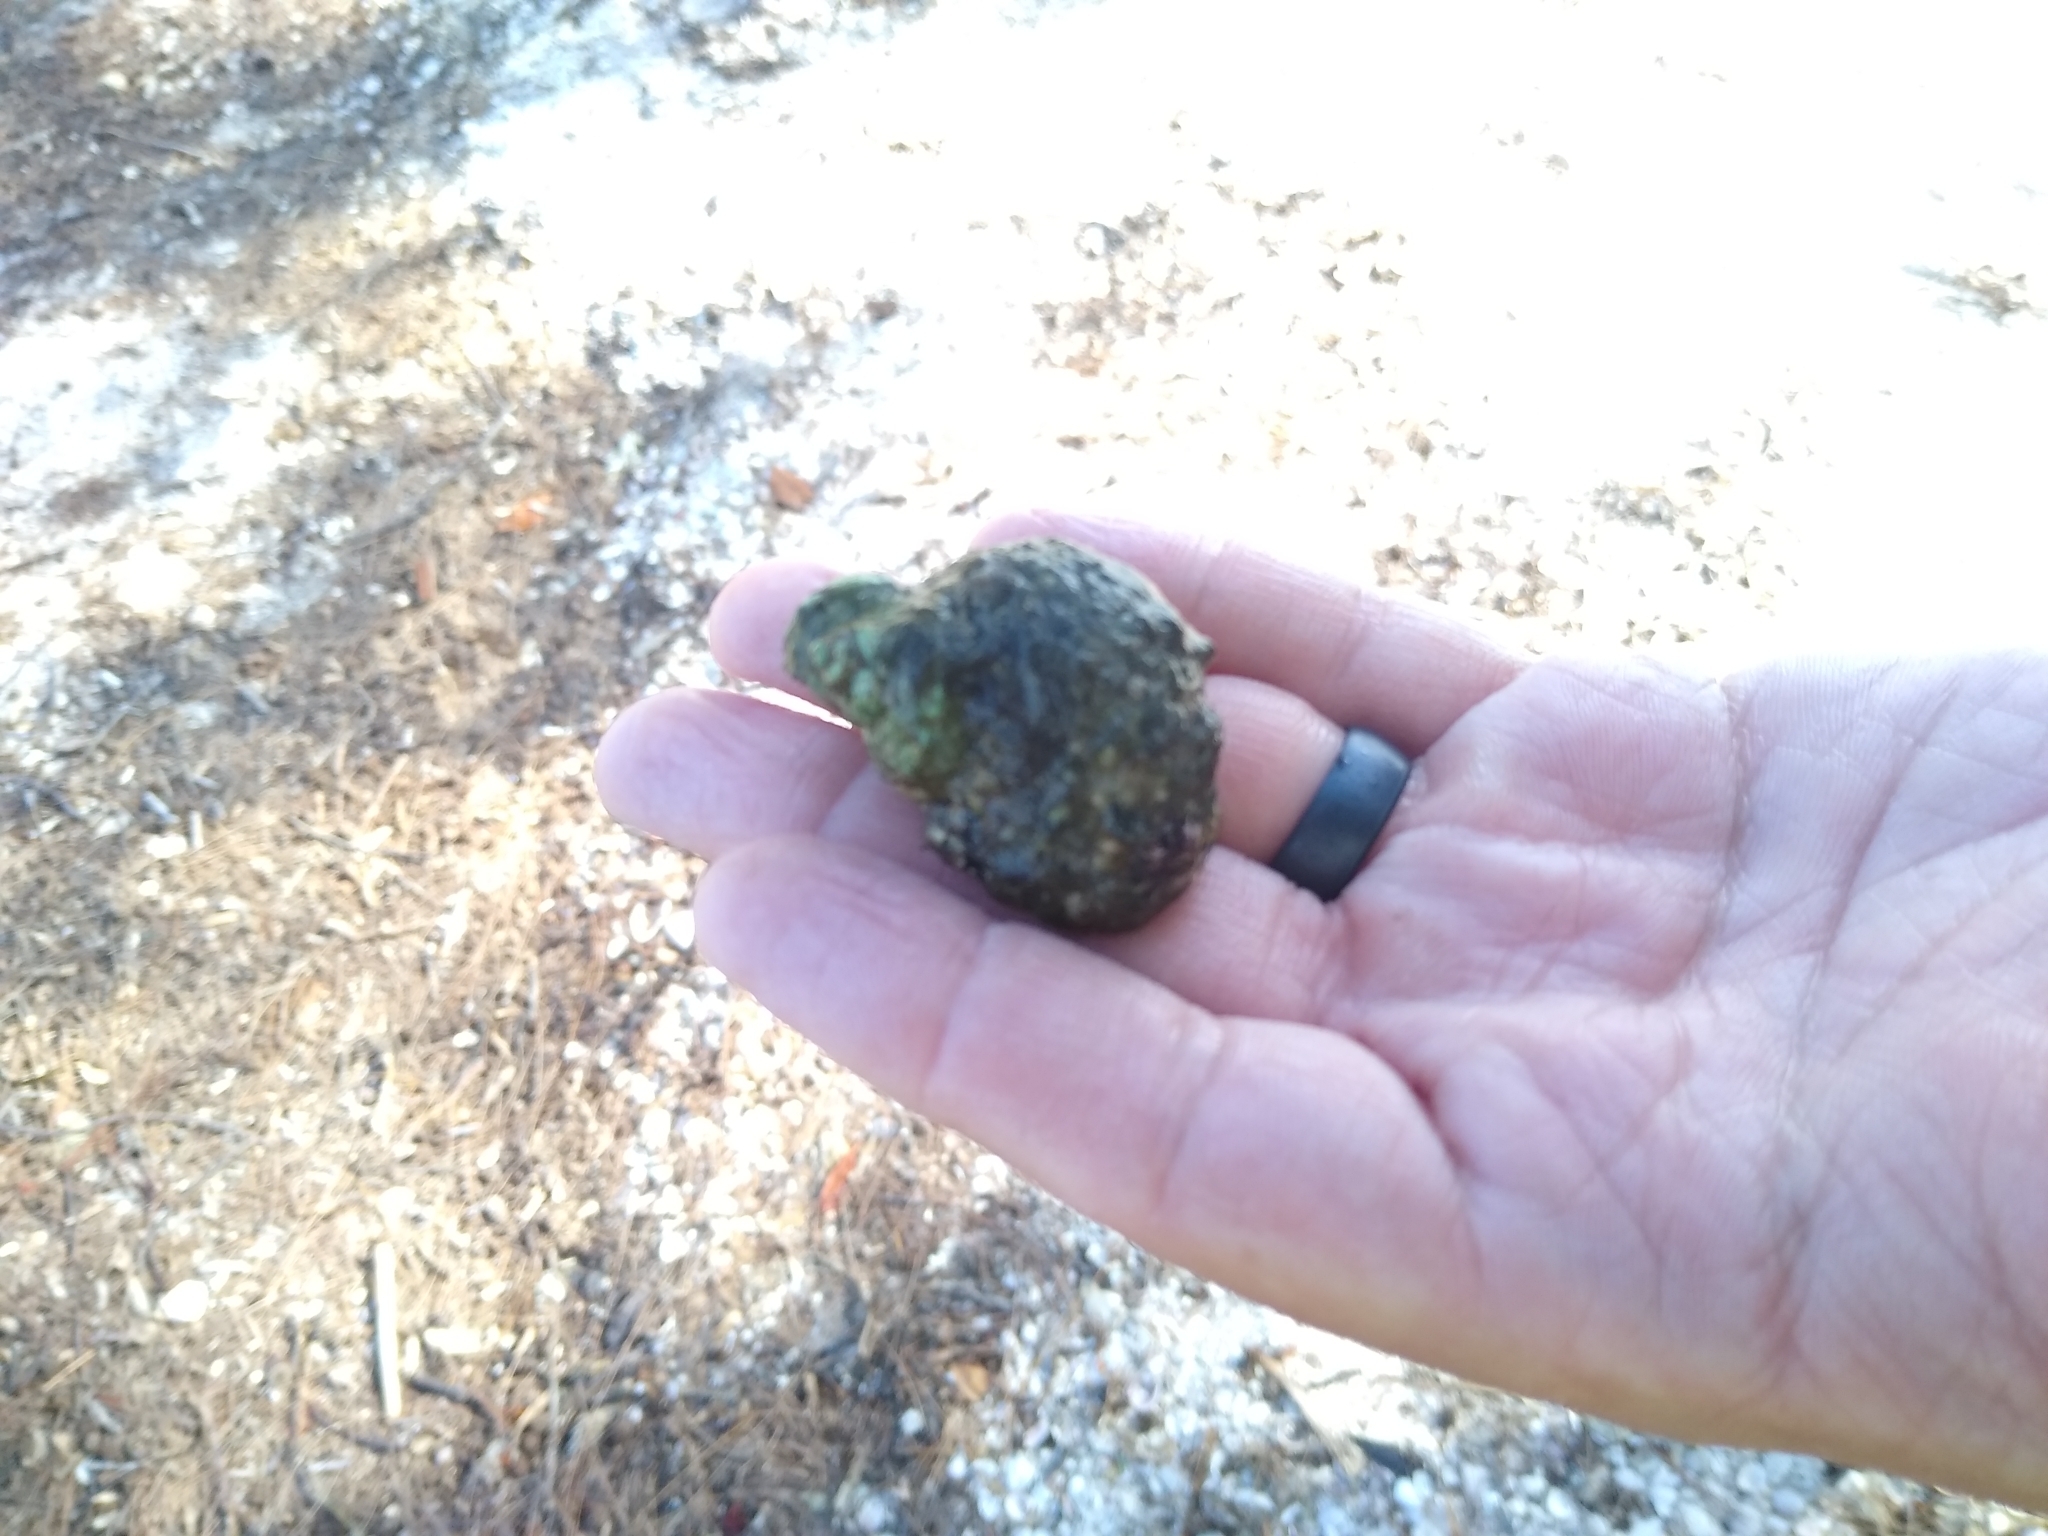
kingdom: Animalia
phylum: Mollusca
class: Gastropoda
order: Trochida
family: Turbinidae
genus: Turbo
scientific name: Turbo castanea
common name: Chestnut turban
